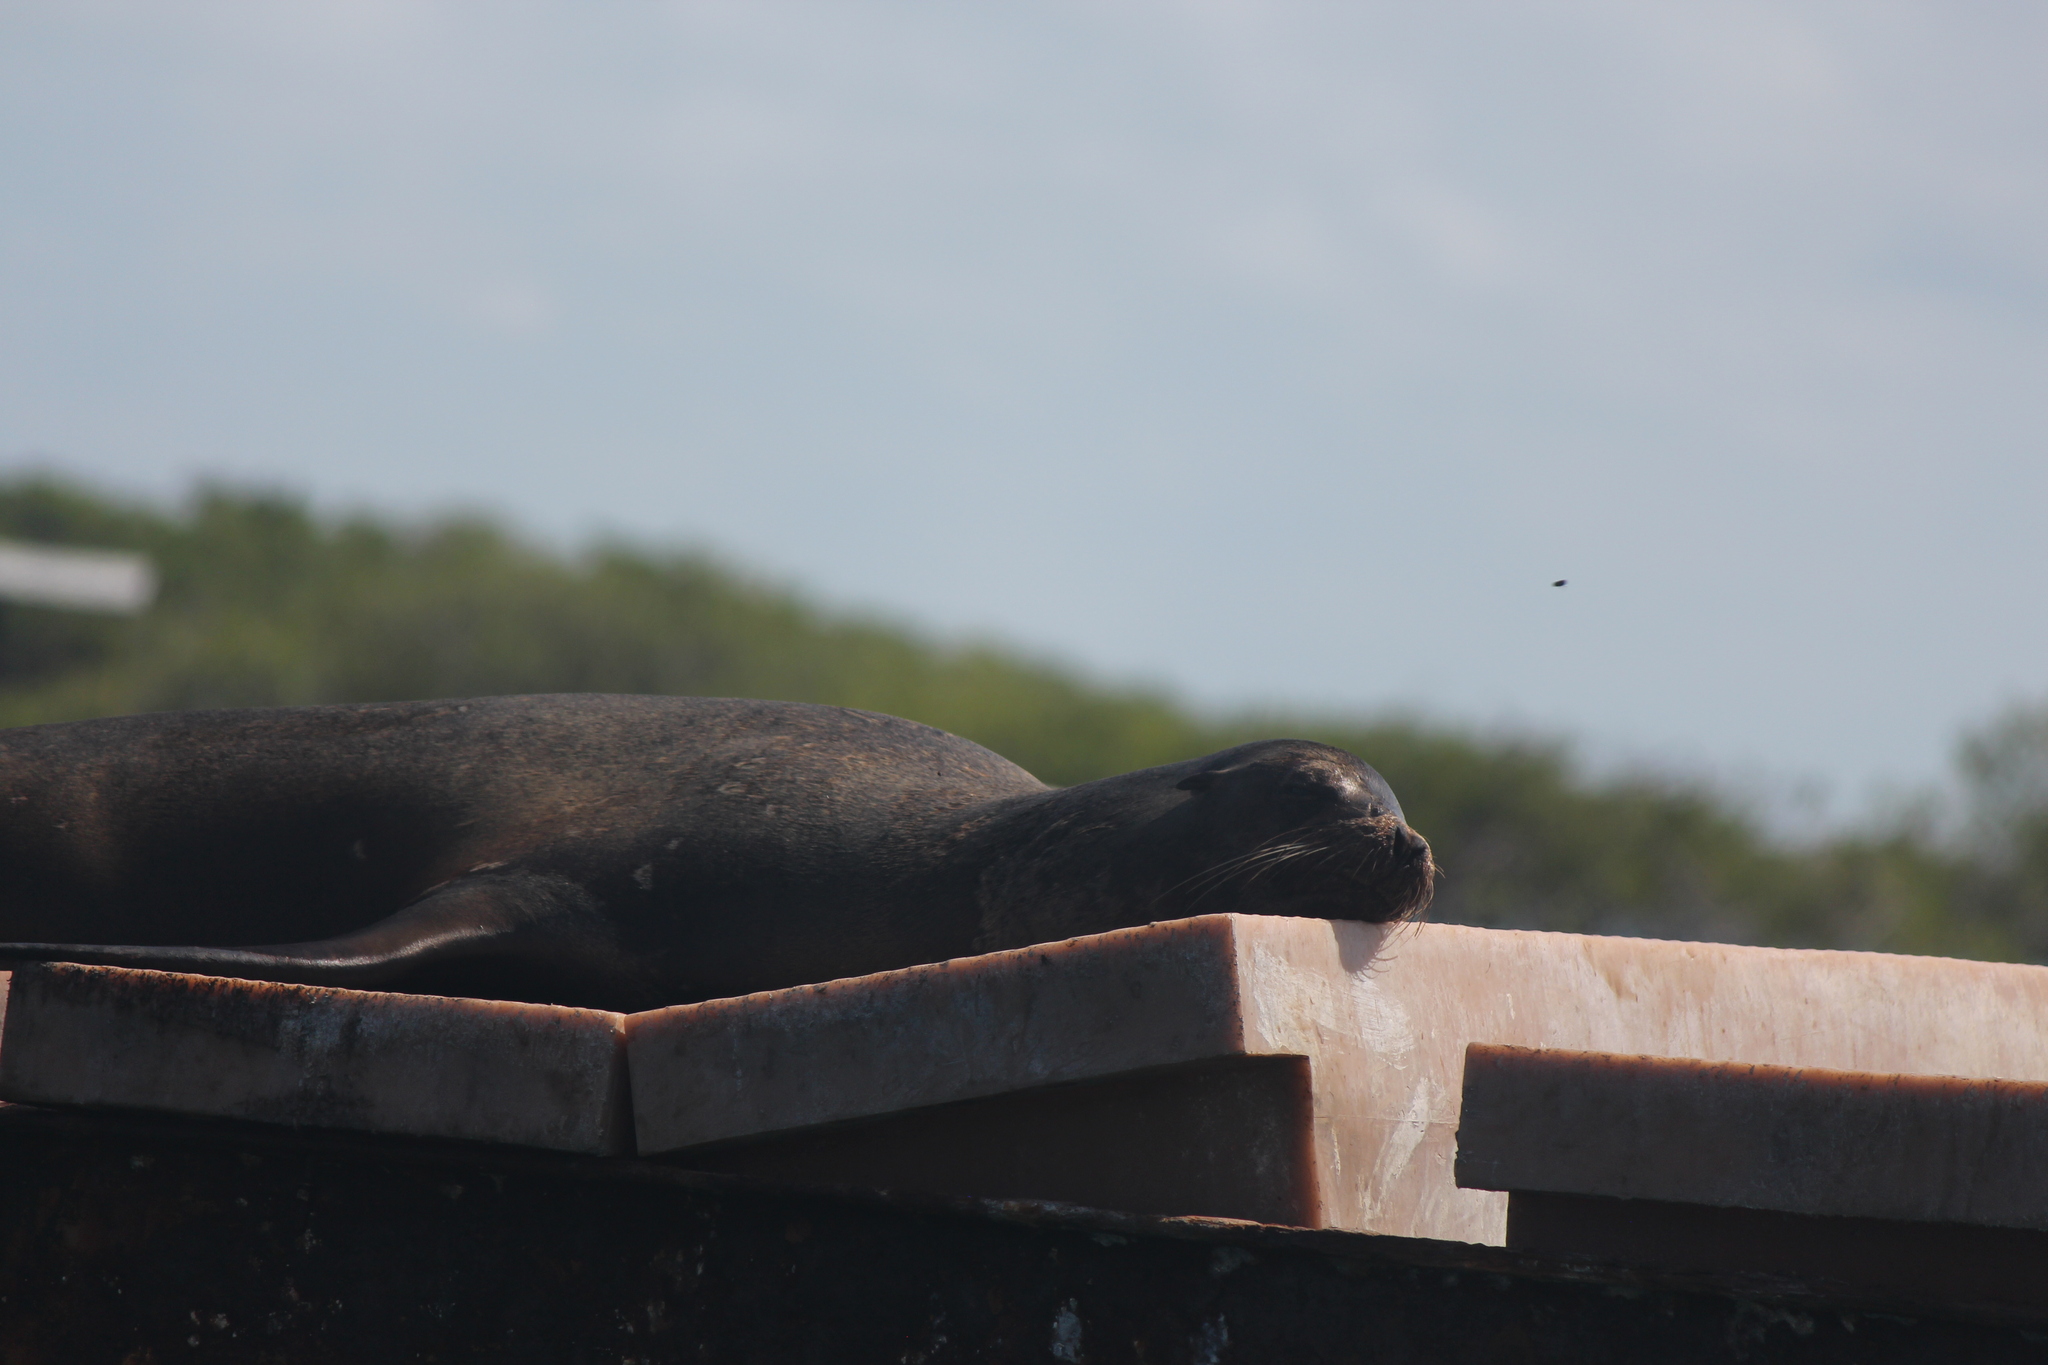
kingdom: Animalia
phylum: Chordata
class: Mammalia
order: Carnivora
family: Otariidae
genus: Zalophus
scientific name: Zalophus wollebaeki
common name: Galapagos sea lion
